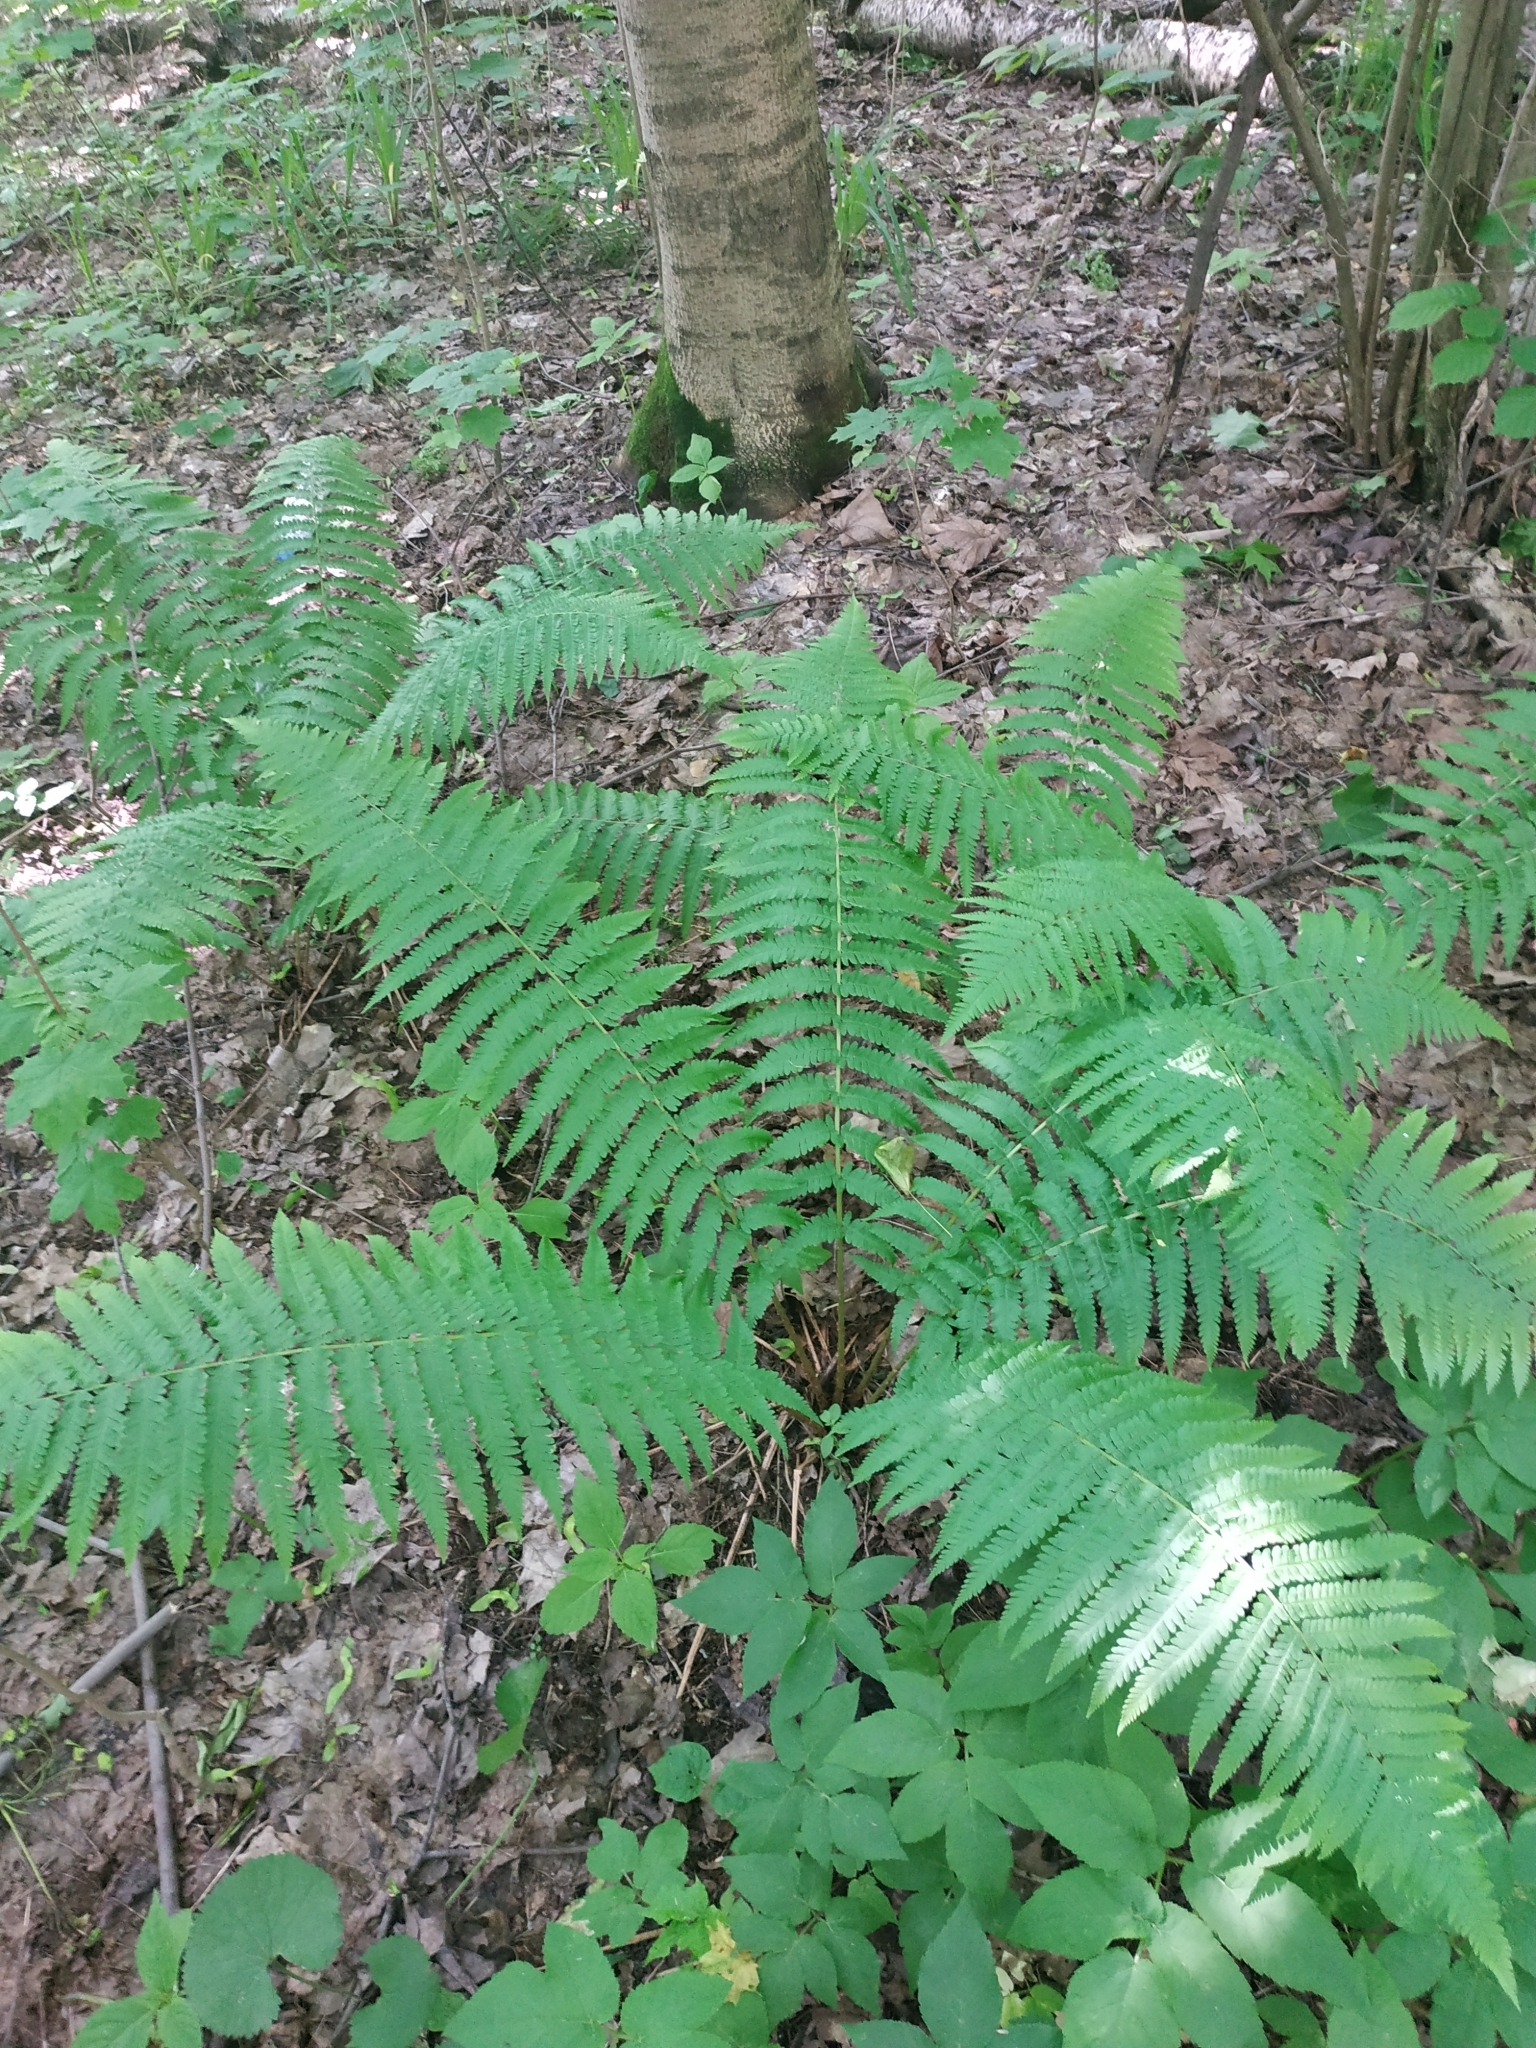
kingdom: Plantae
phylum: Tracheophyta
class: Polypodiopsida
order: Polypodiales
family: Dryopteridaceae
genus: Dryopteris
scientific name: Dryopteris filix-mas
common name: Male fern
